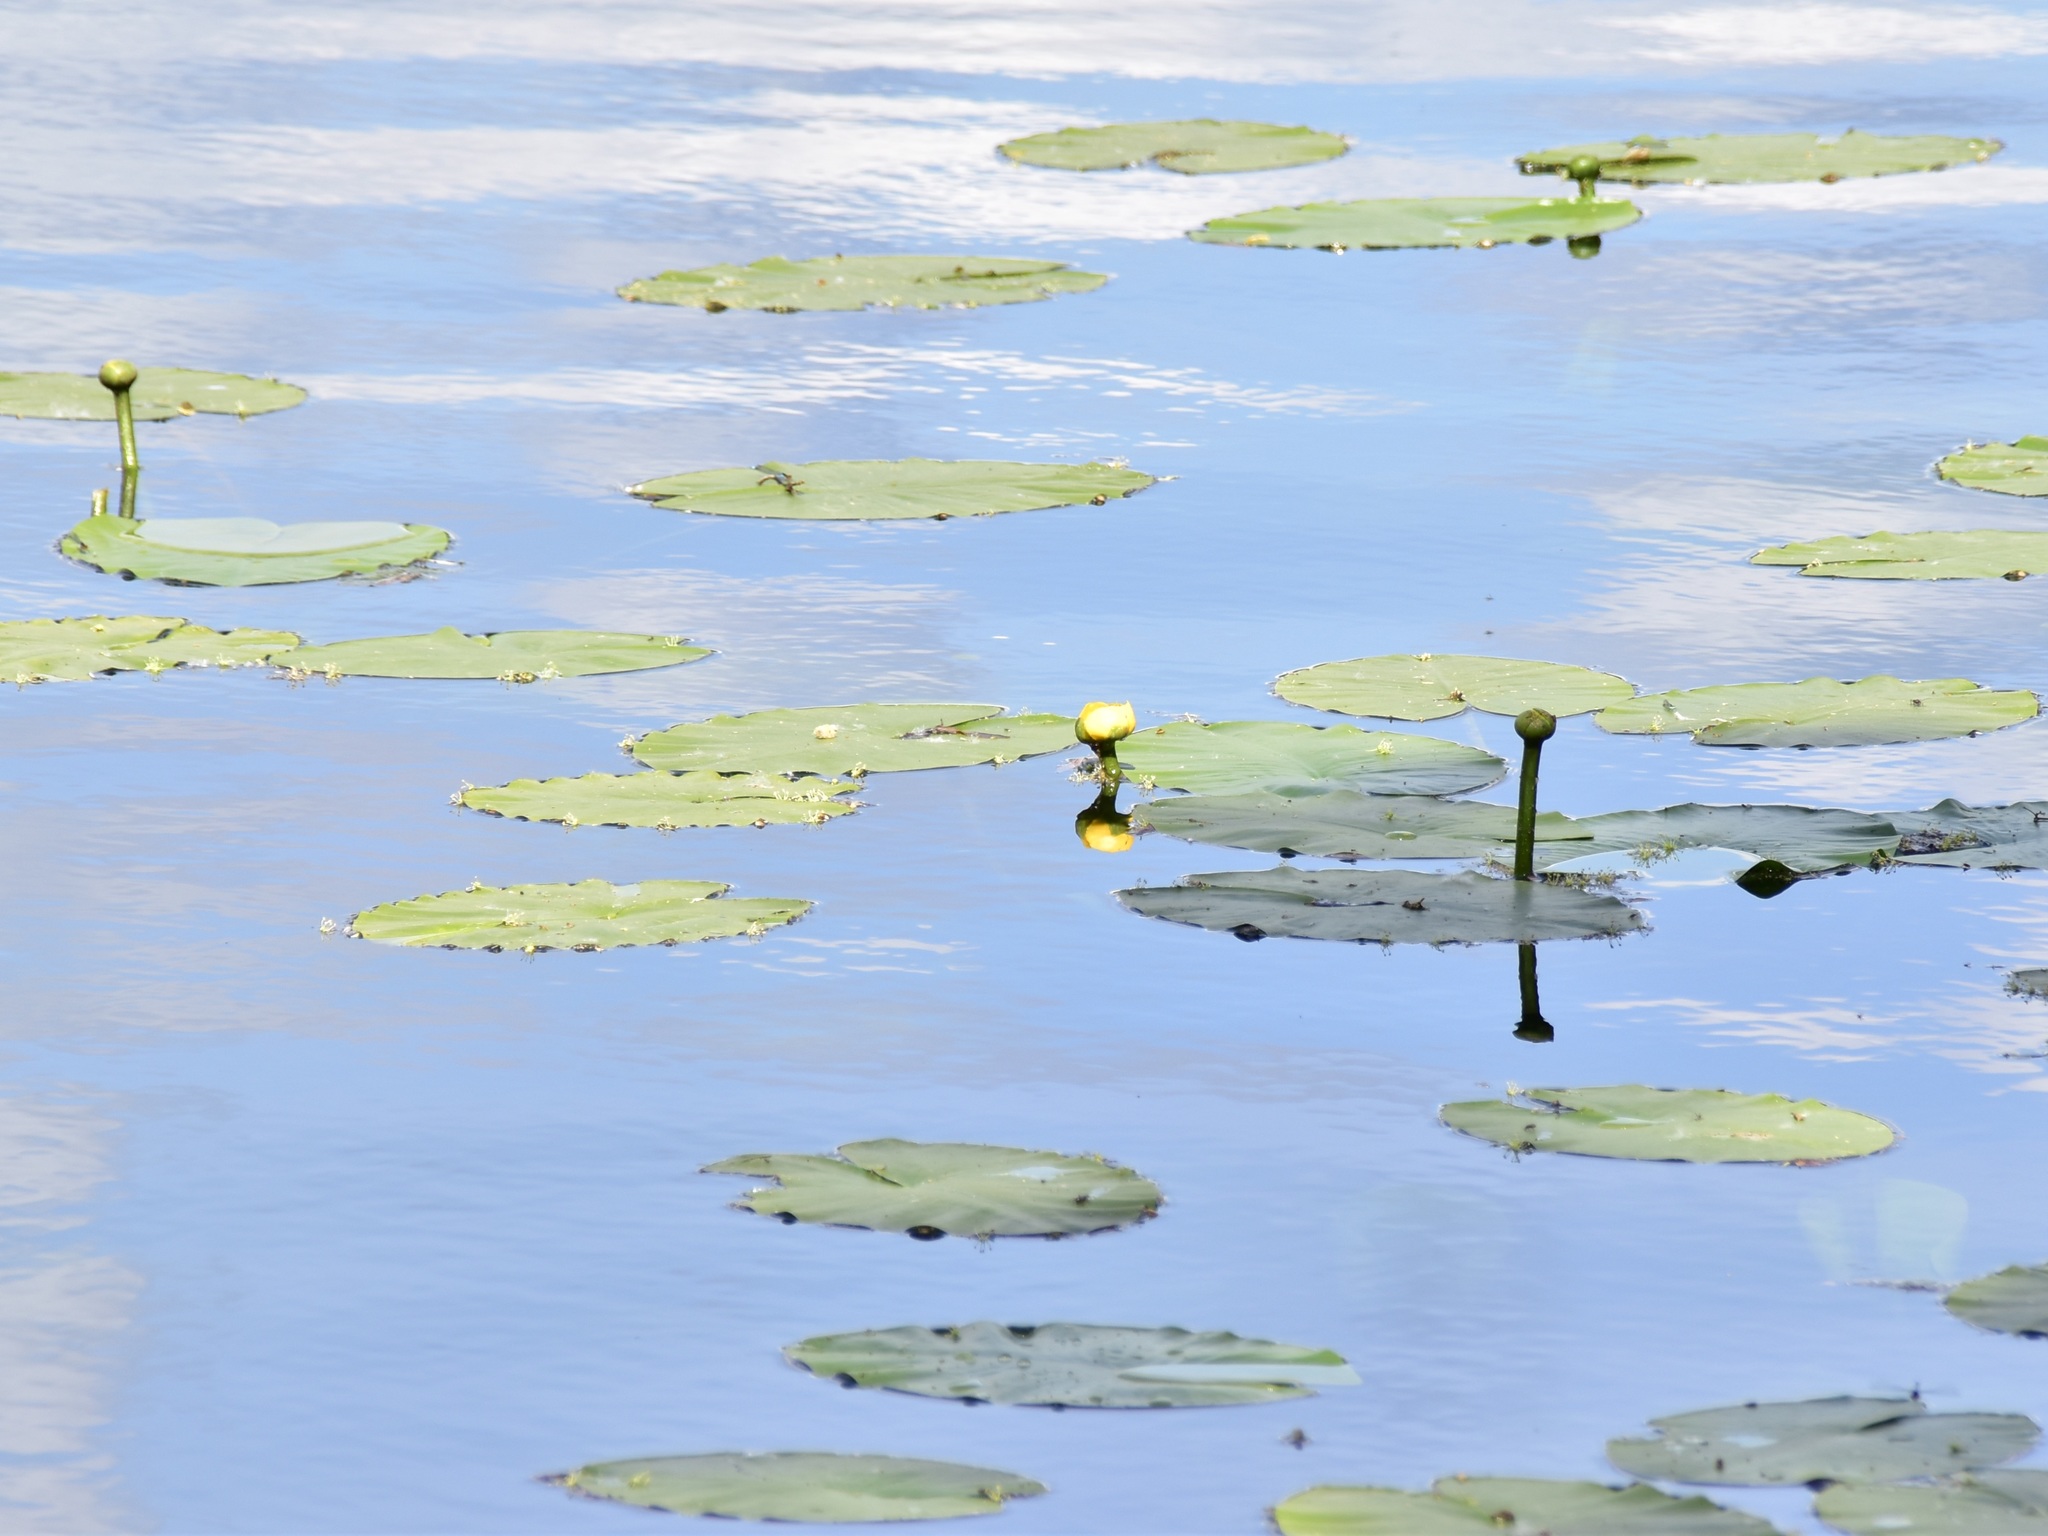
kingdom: Plantae
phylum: Tracheophyta
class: Magnoliopsida
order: Nymphaeales
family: Nymphaeaceae
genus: Nuphar
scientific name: Nuphar lutea
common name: Yellow water-lily
